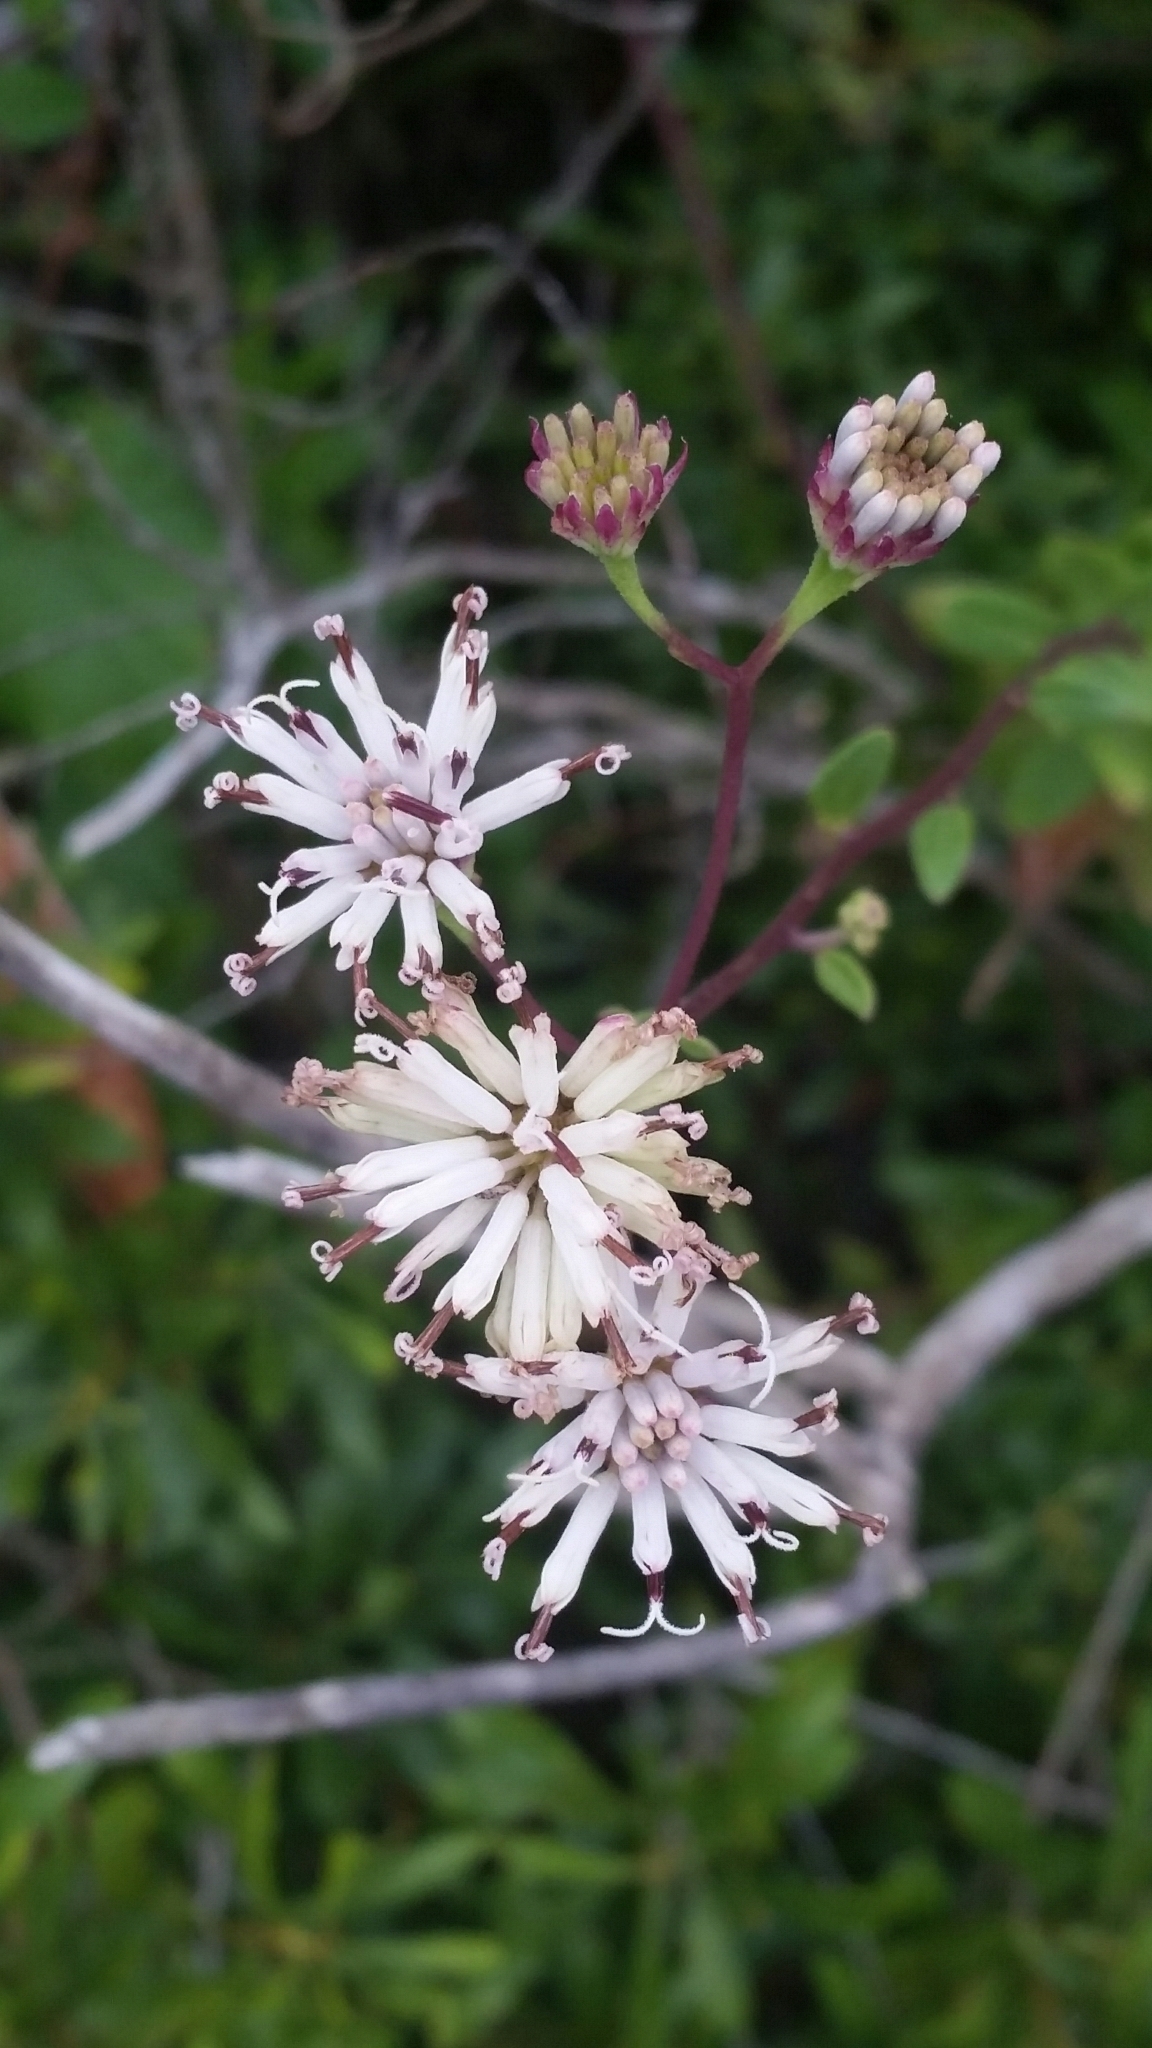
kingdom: Plantae
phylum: Tracheophyta
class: Magnoliopsida
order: Asterales
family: Asteraceae
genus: Palafoxia
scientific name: Palafoxia feayi
